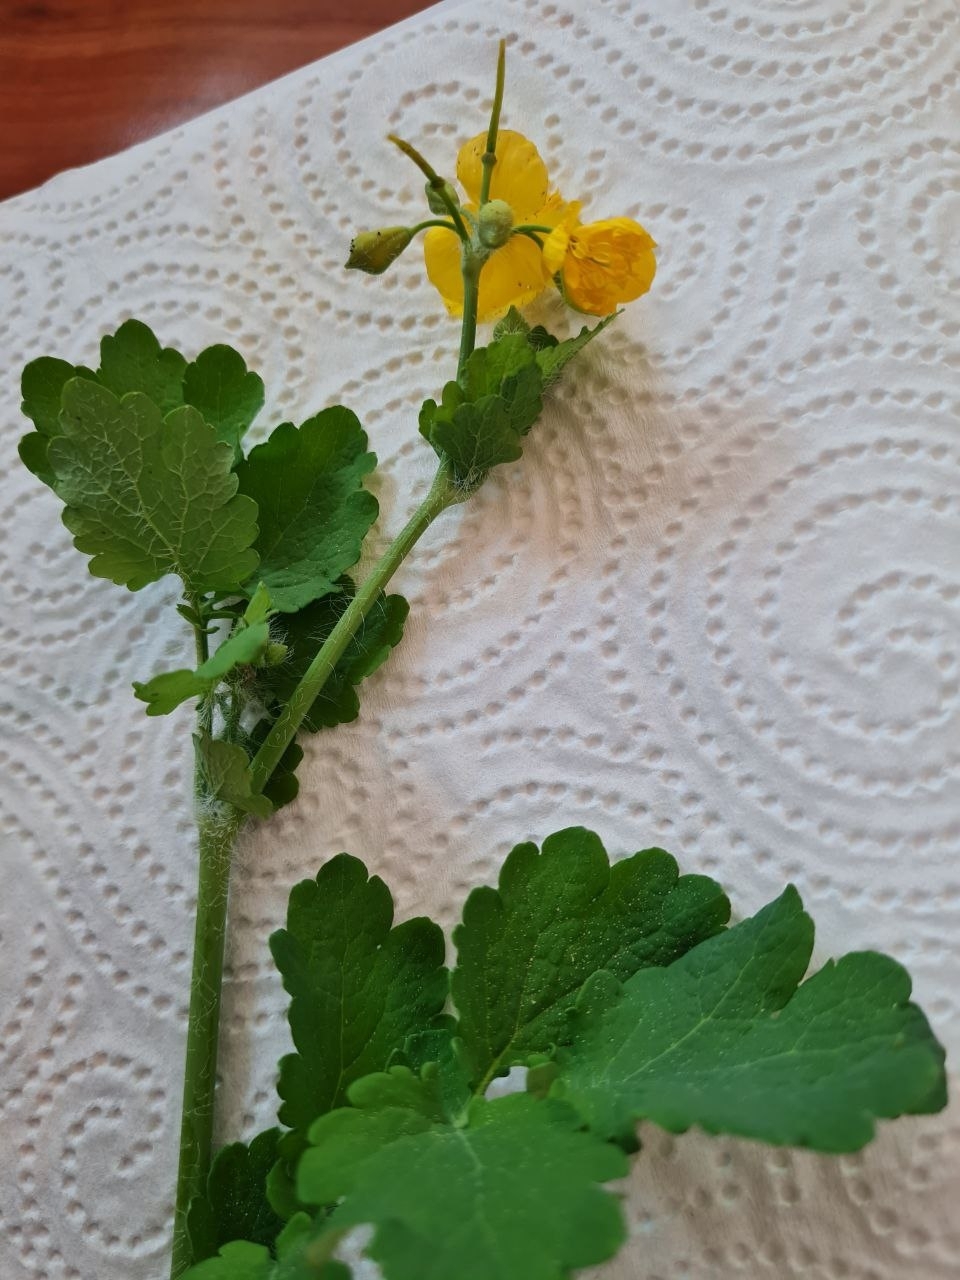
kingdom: Plantae
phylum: Tracheophyta
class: Magnoliopsida
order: Ranunculales
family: Papaveraceae
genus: Chelidonium
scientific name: Chelidonium majus
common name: Greater celandine
